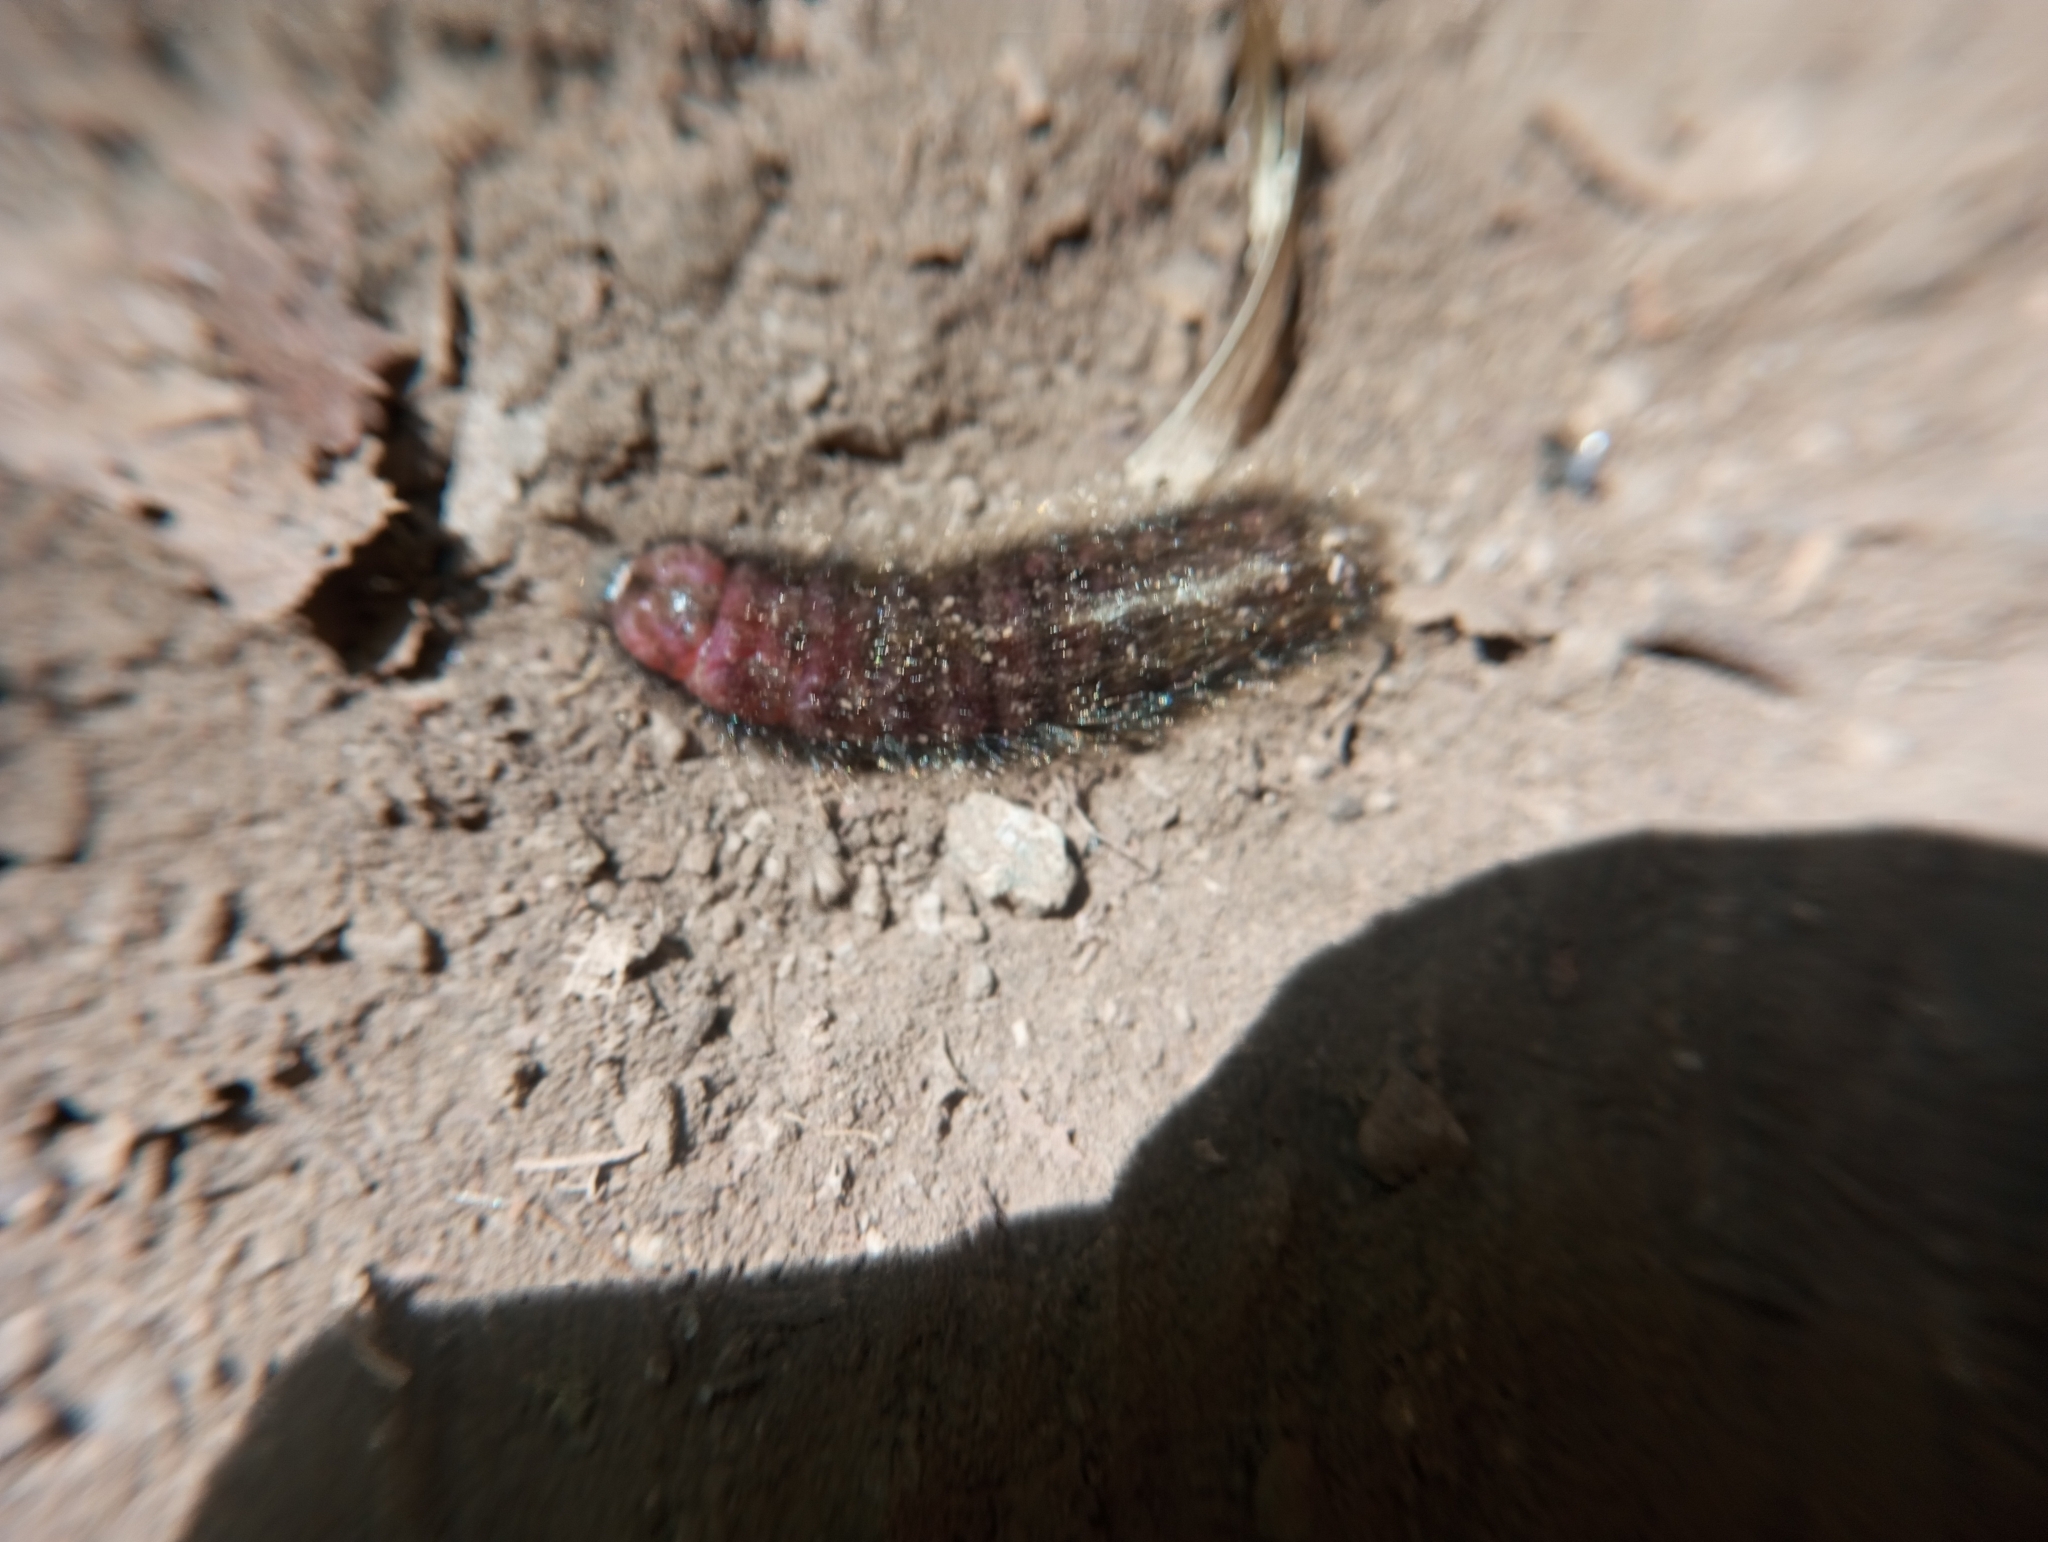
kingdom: Animalia
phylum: Arthropoda
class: Insecta
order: Coleoptera
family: Melyridae
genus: Astylus
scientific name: Astylus
